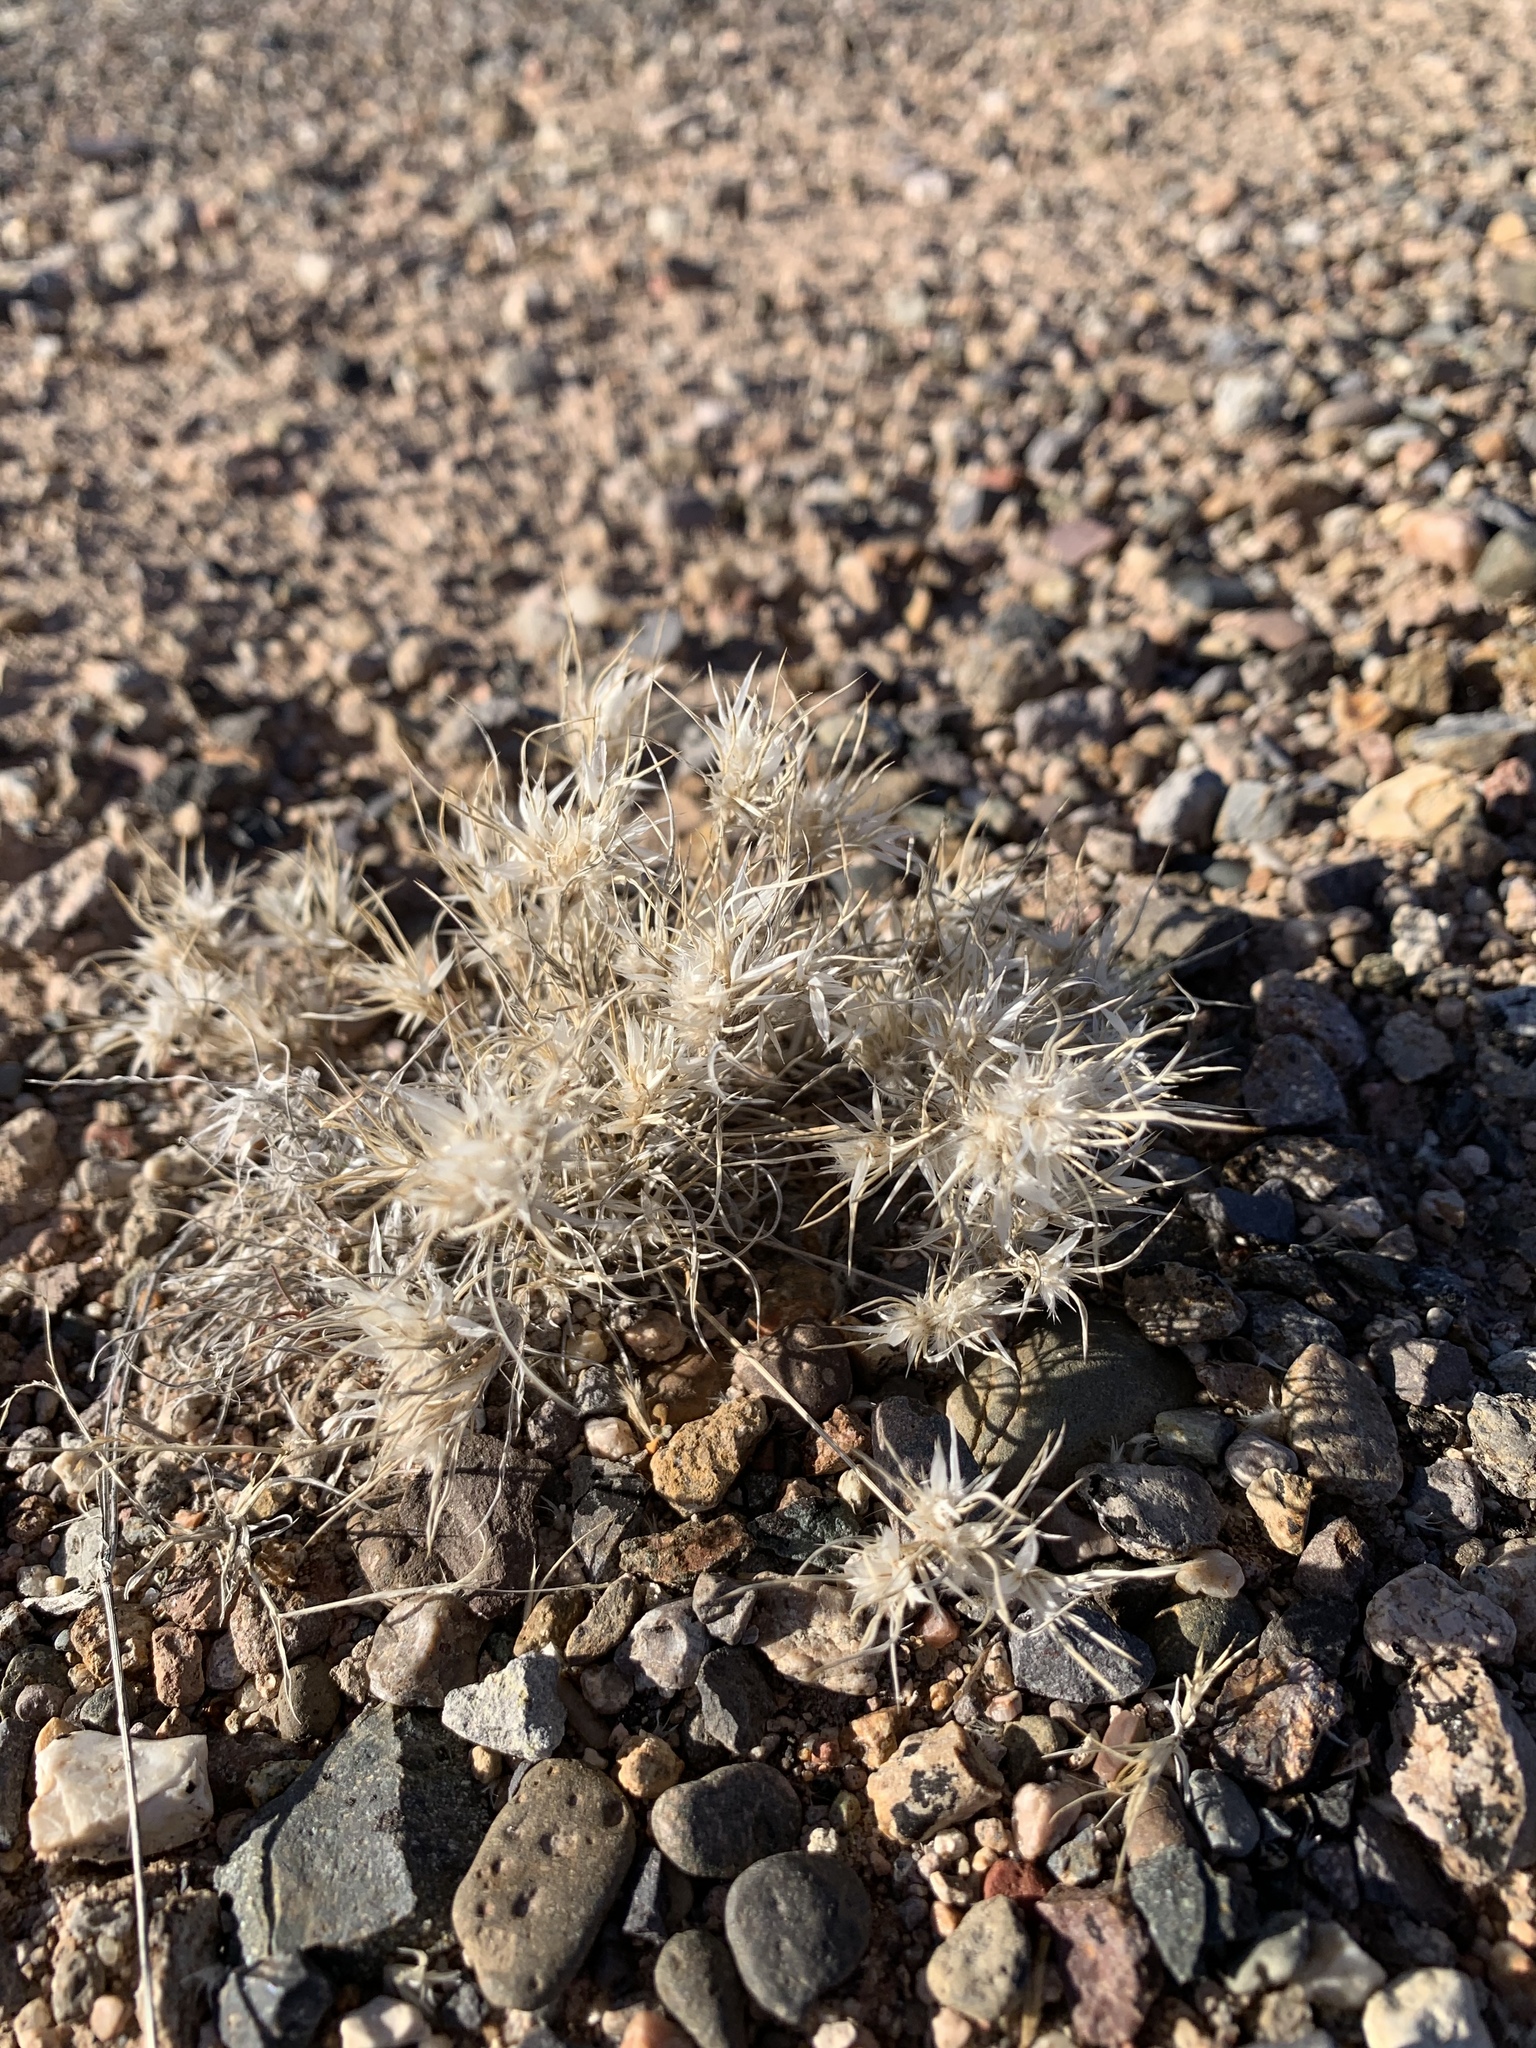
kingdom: Plantae
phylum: Tracheophyta
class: Liliopsida
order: Poales
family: Poaceae
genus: Dasyochloa
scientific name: Dasyochloa pulchella
